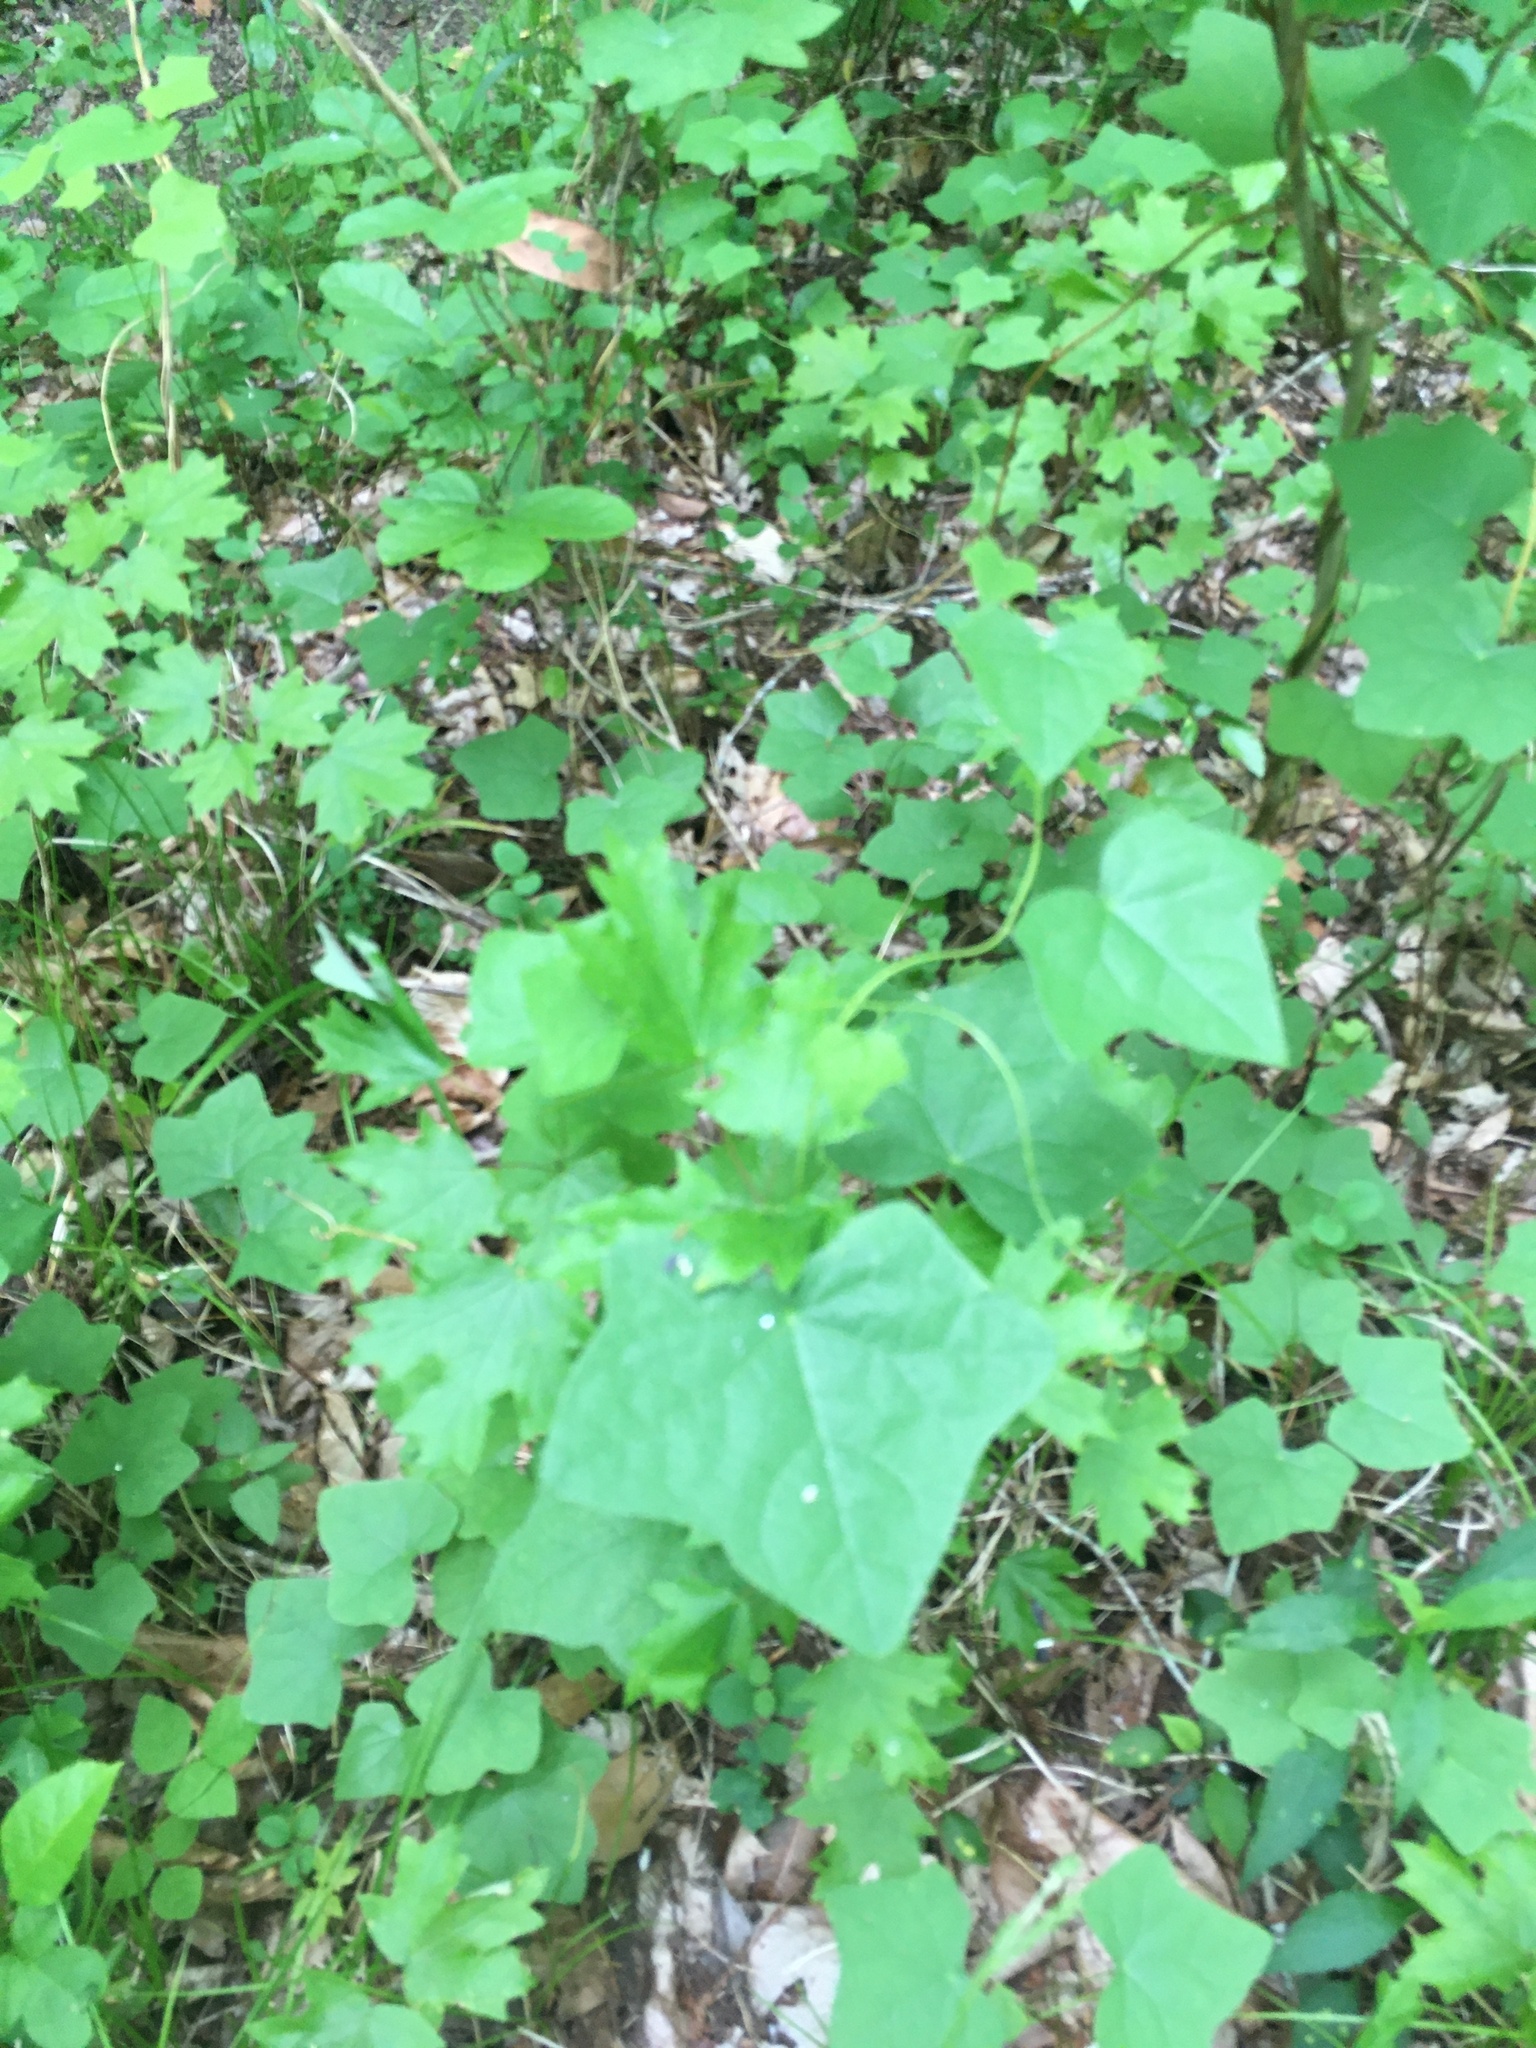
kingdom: Plantae
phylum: Tracheophyta
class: Magnoliopsida
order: Malpighiales
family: Passifloraceae
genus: Passiflora
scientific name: Passiflora lutea
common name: Yellow passionflower
